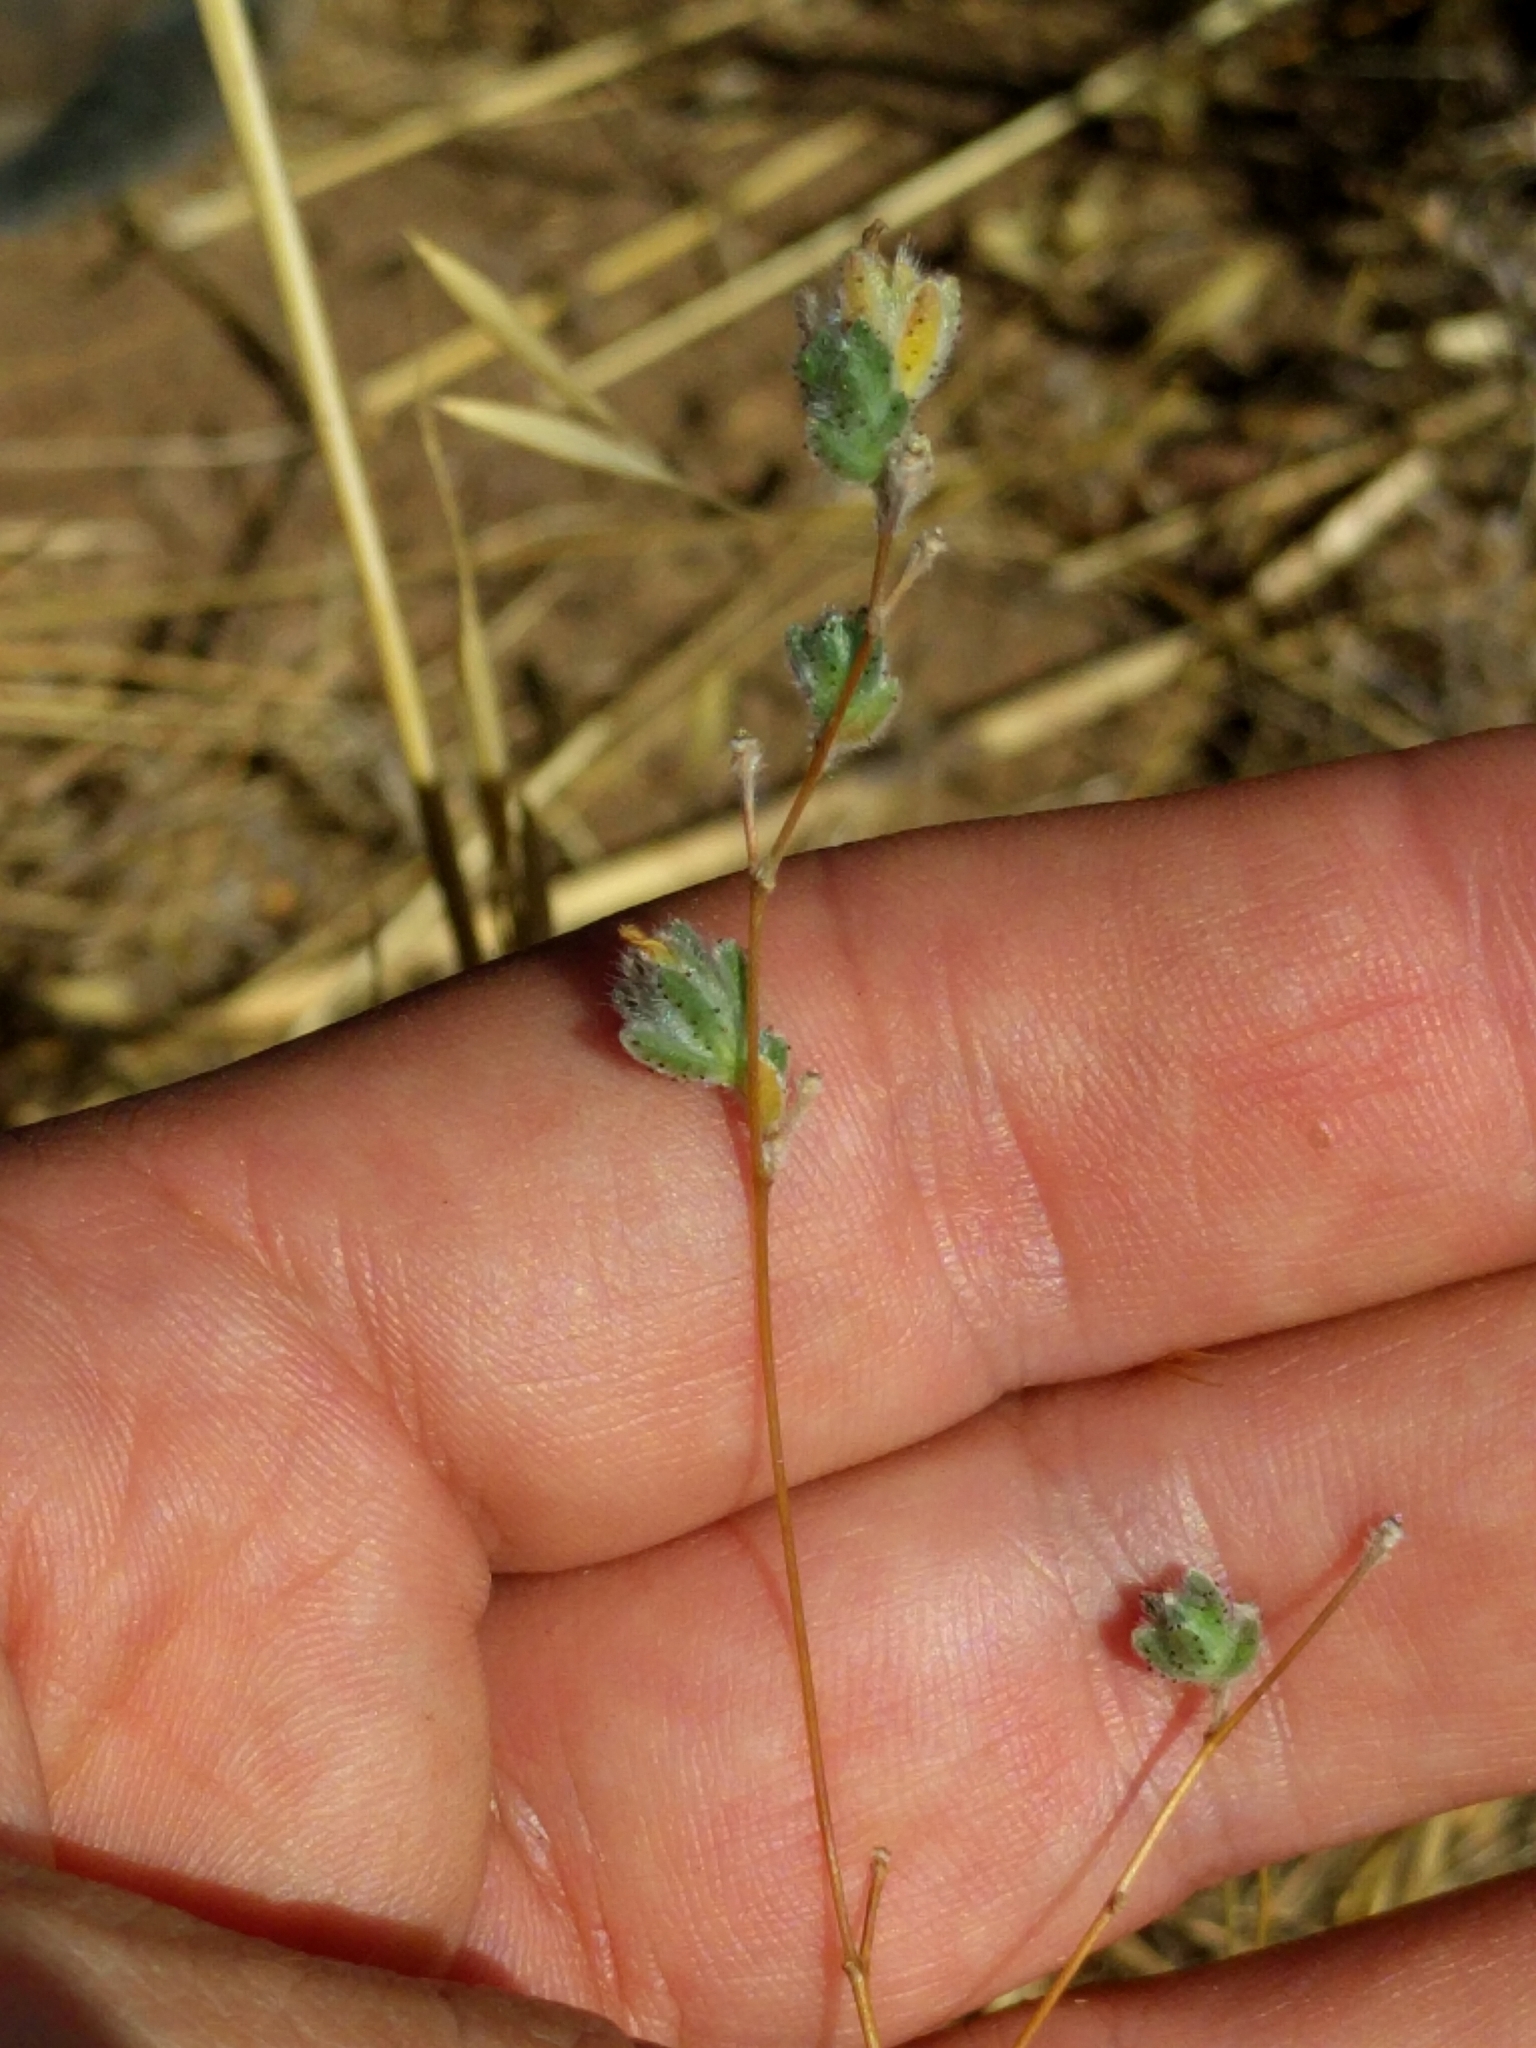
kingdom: Plantae
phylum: Tracheophyta
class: Magnoliopsida
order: Asterales
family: Asteraceae
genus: Lagophylla
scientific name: Lagophylla ramosissima
